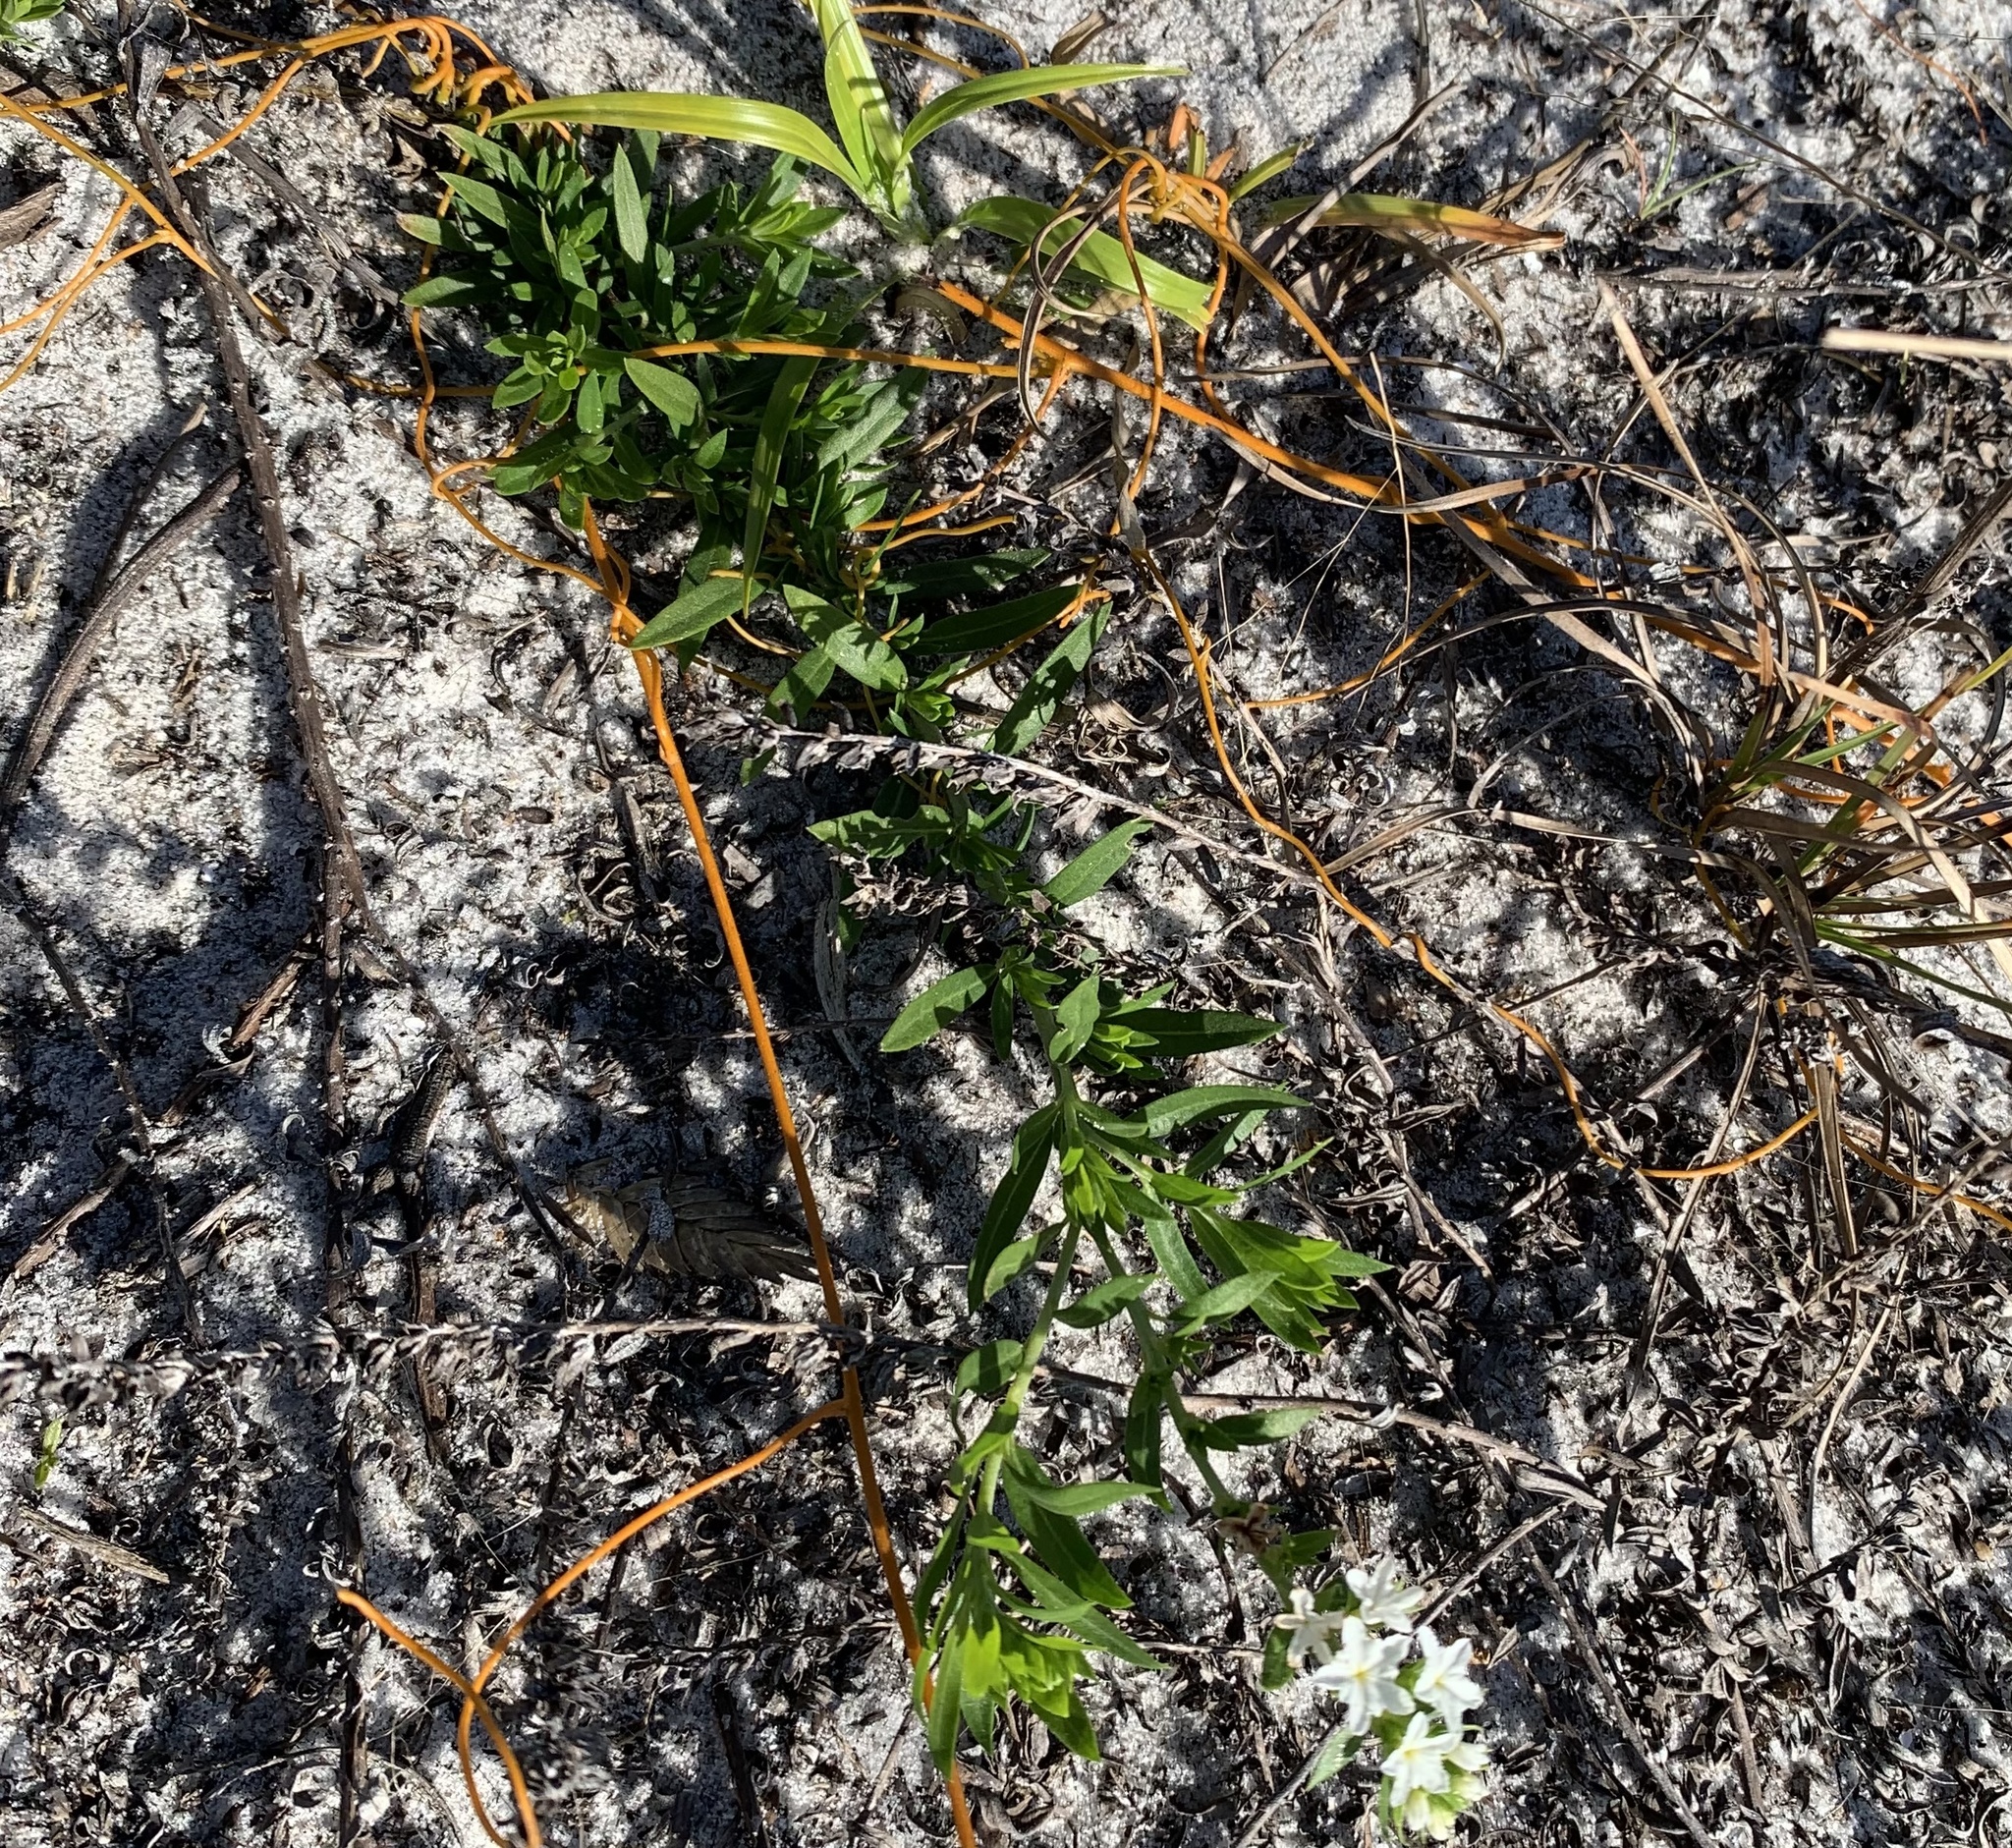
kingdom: Plantae
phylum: Tracheophyta
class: Magnoliopsida
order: Boraginales
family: Heliotropiaceae
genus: Euploca
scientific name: Euploca polyphylla
